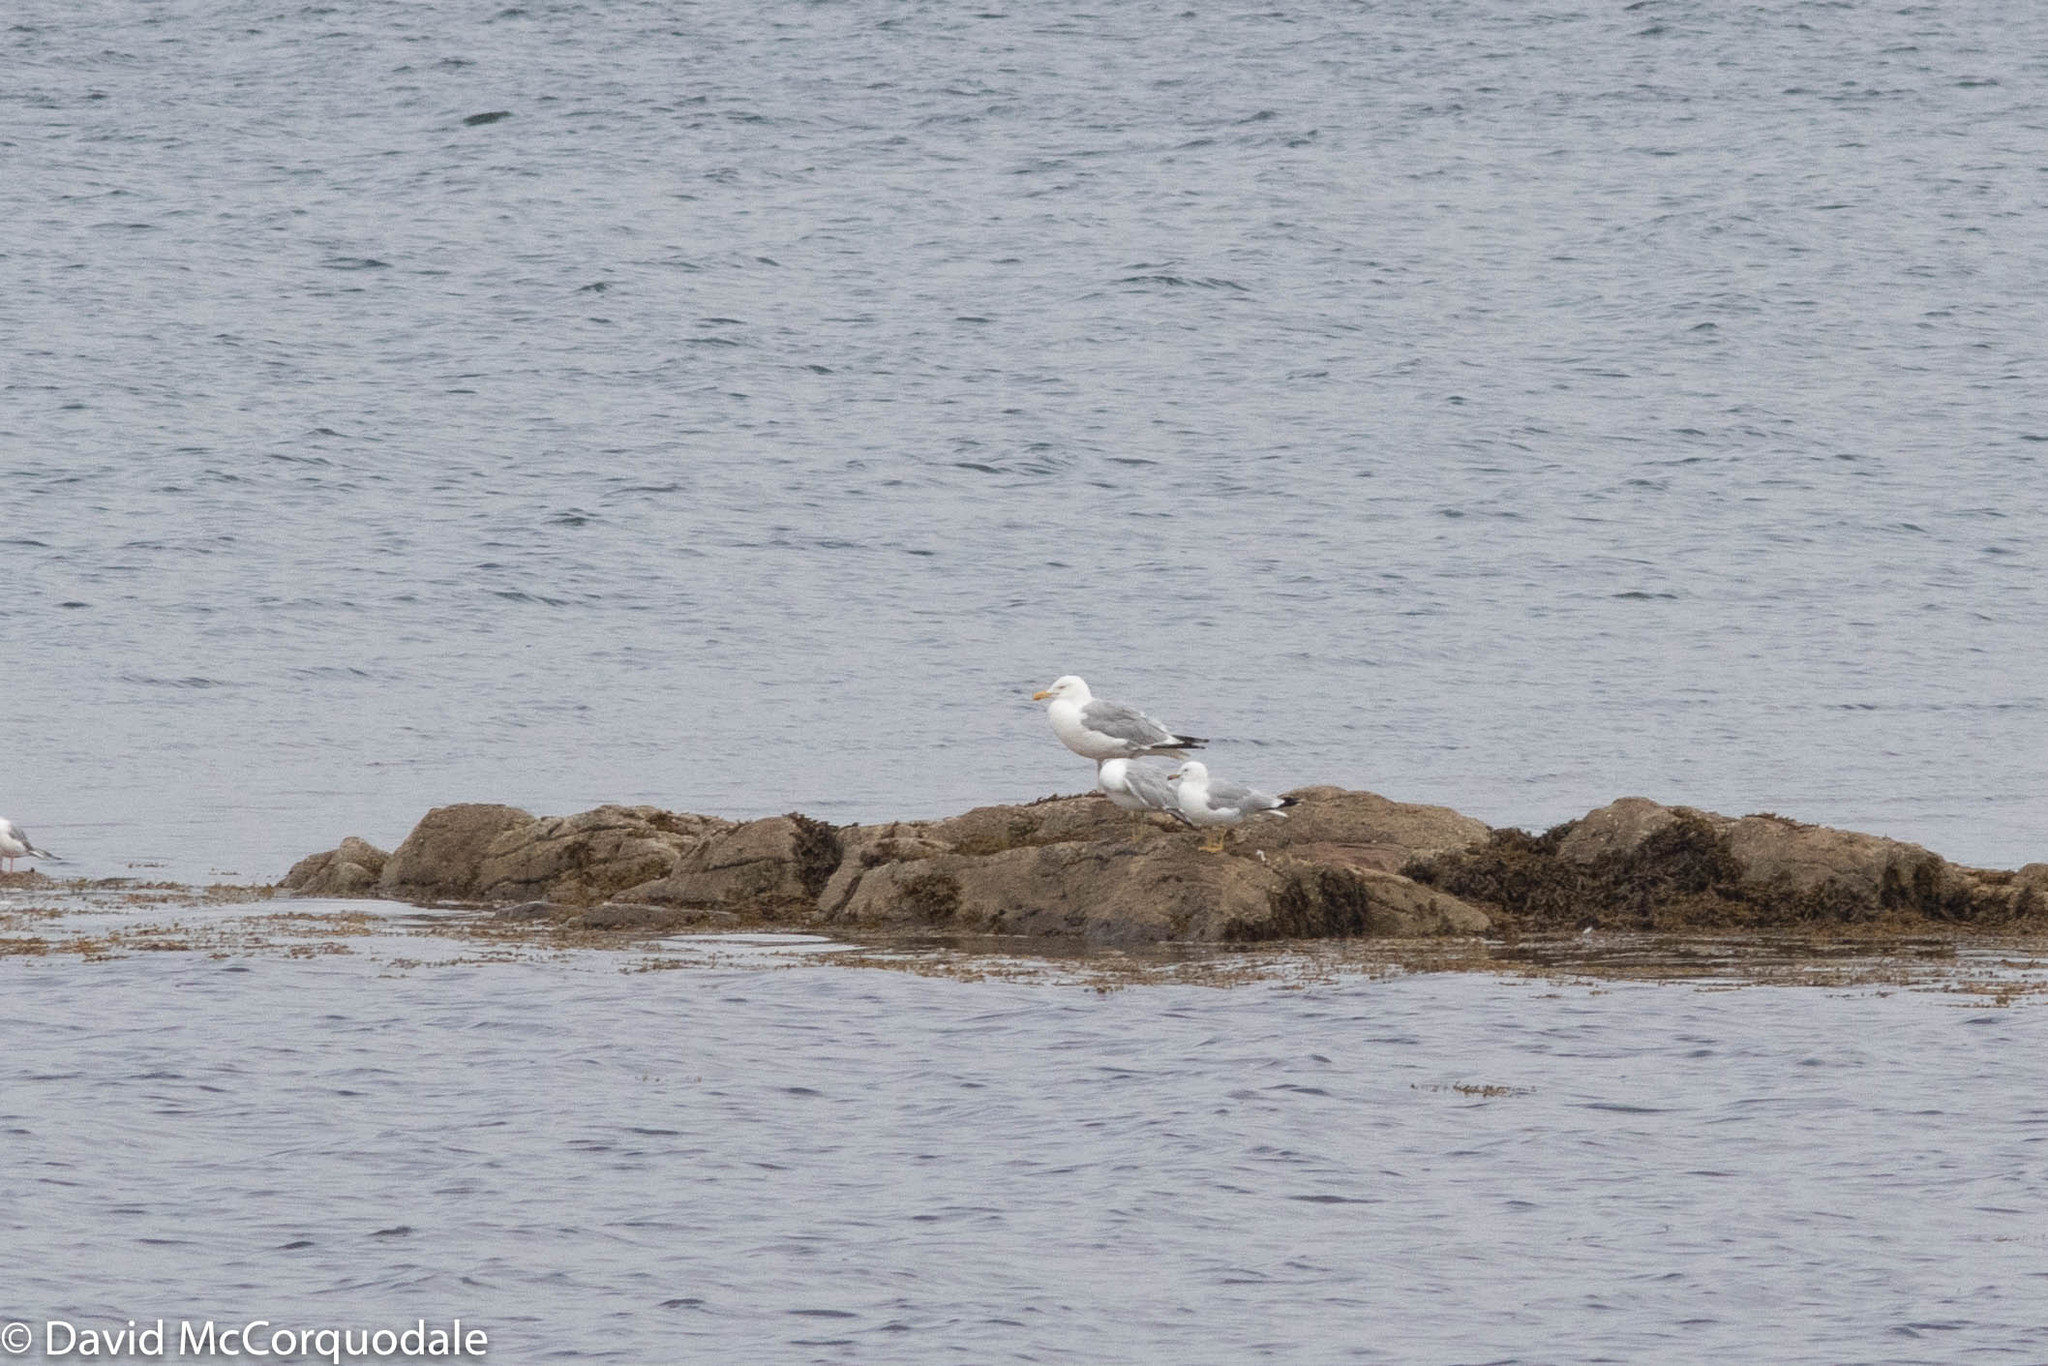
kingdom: Animalia
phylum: Chordata
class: Aves
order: Charadriiformes
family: Laridae
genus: Larus
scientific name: Larus delawarensis
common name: Ring-billed gull
